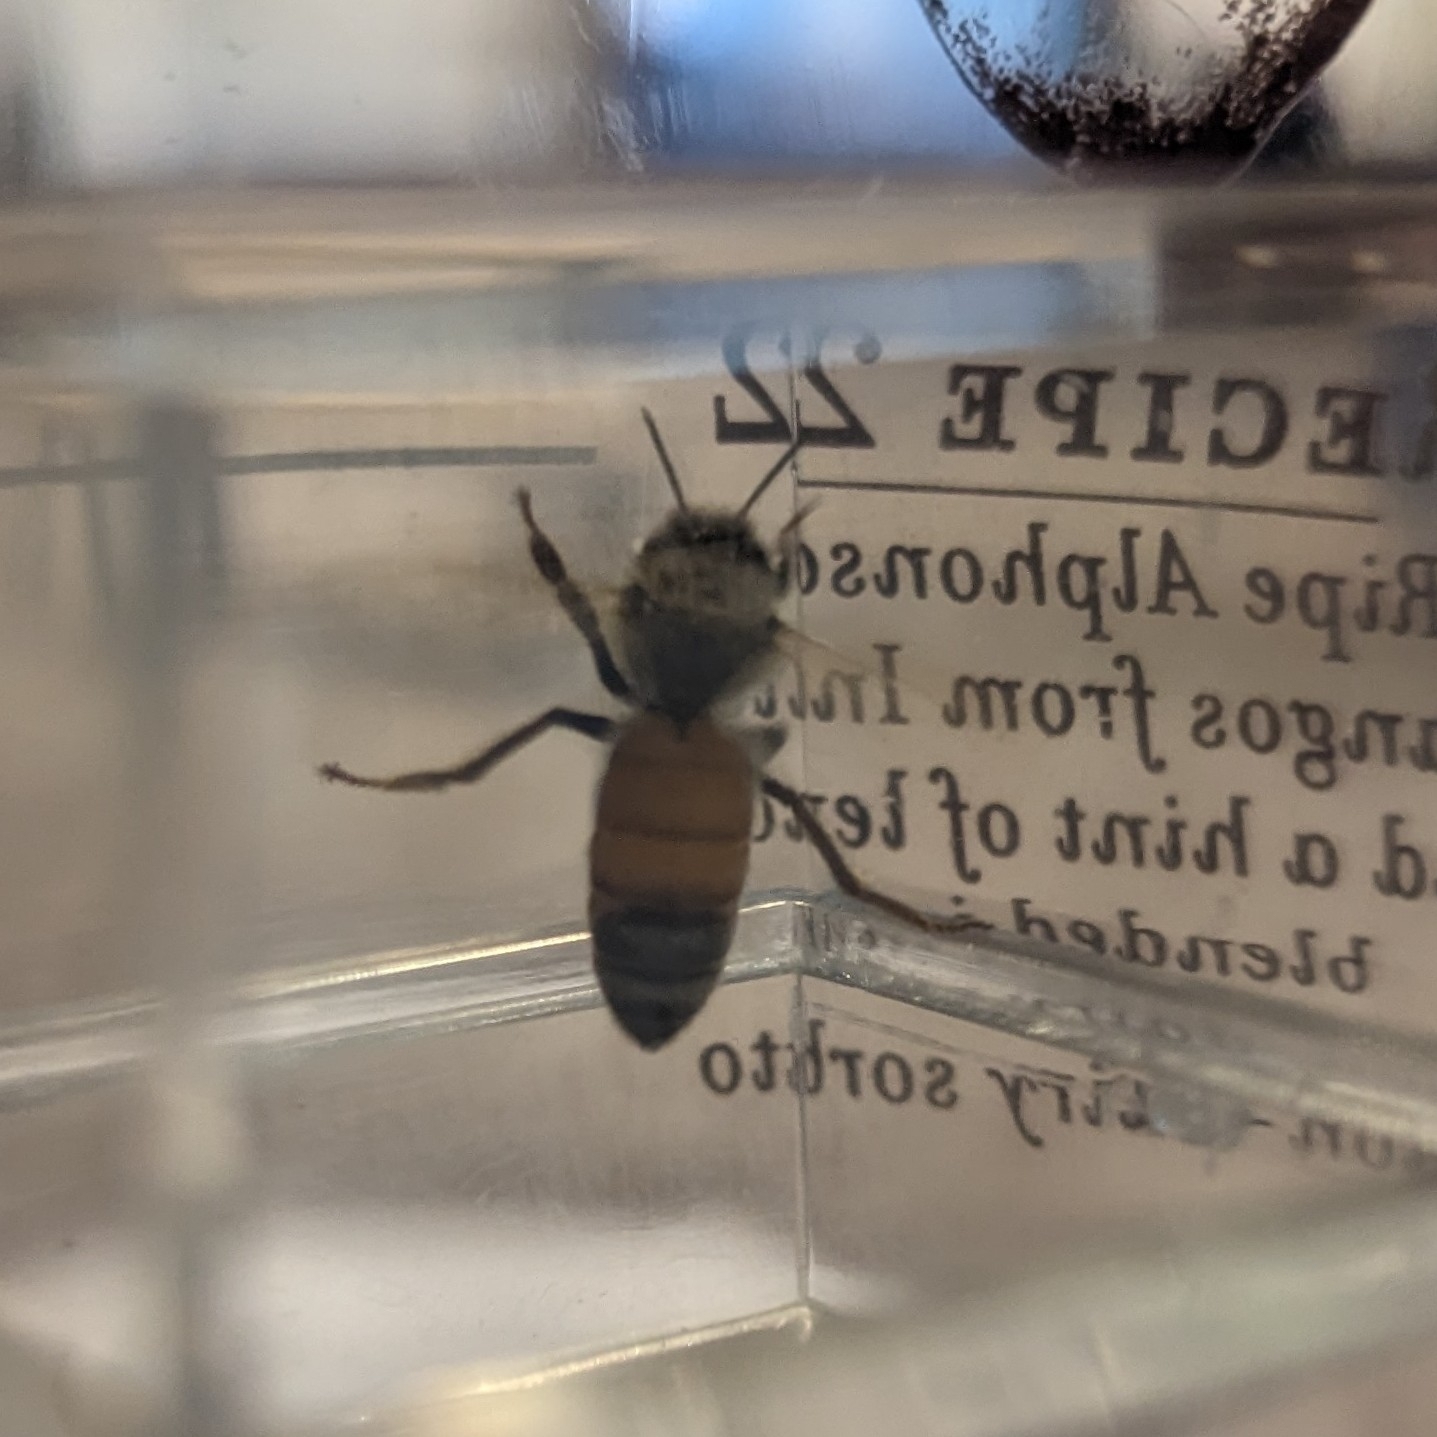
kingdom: Animalia
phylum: Arthropoda
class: Insecta
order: Hymenoptera
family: Apidae
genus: Apis
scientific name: Apis mellifera
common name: Honey bee
